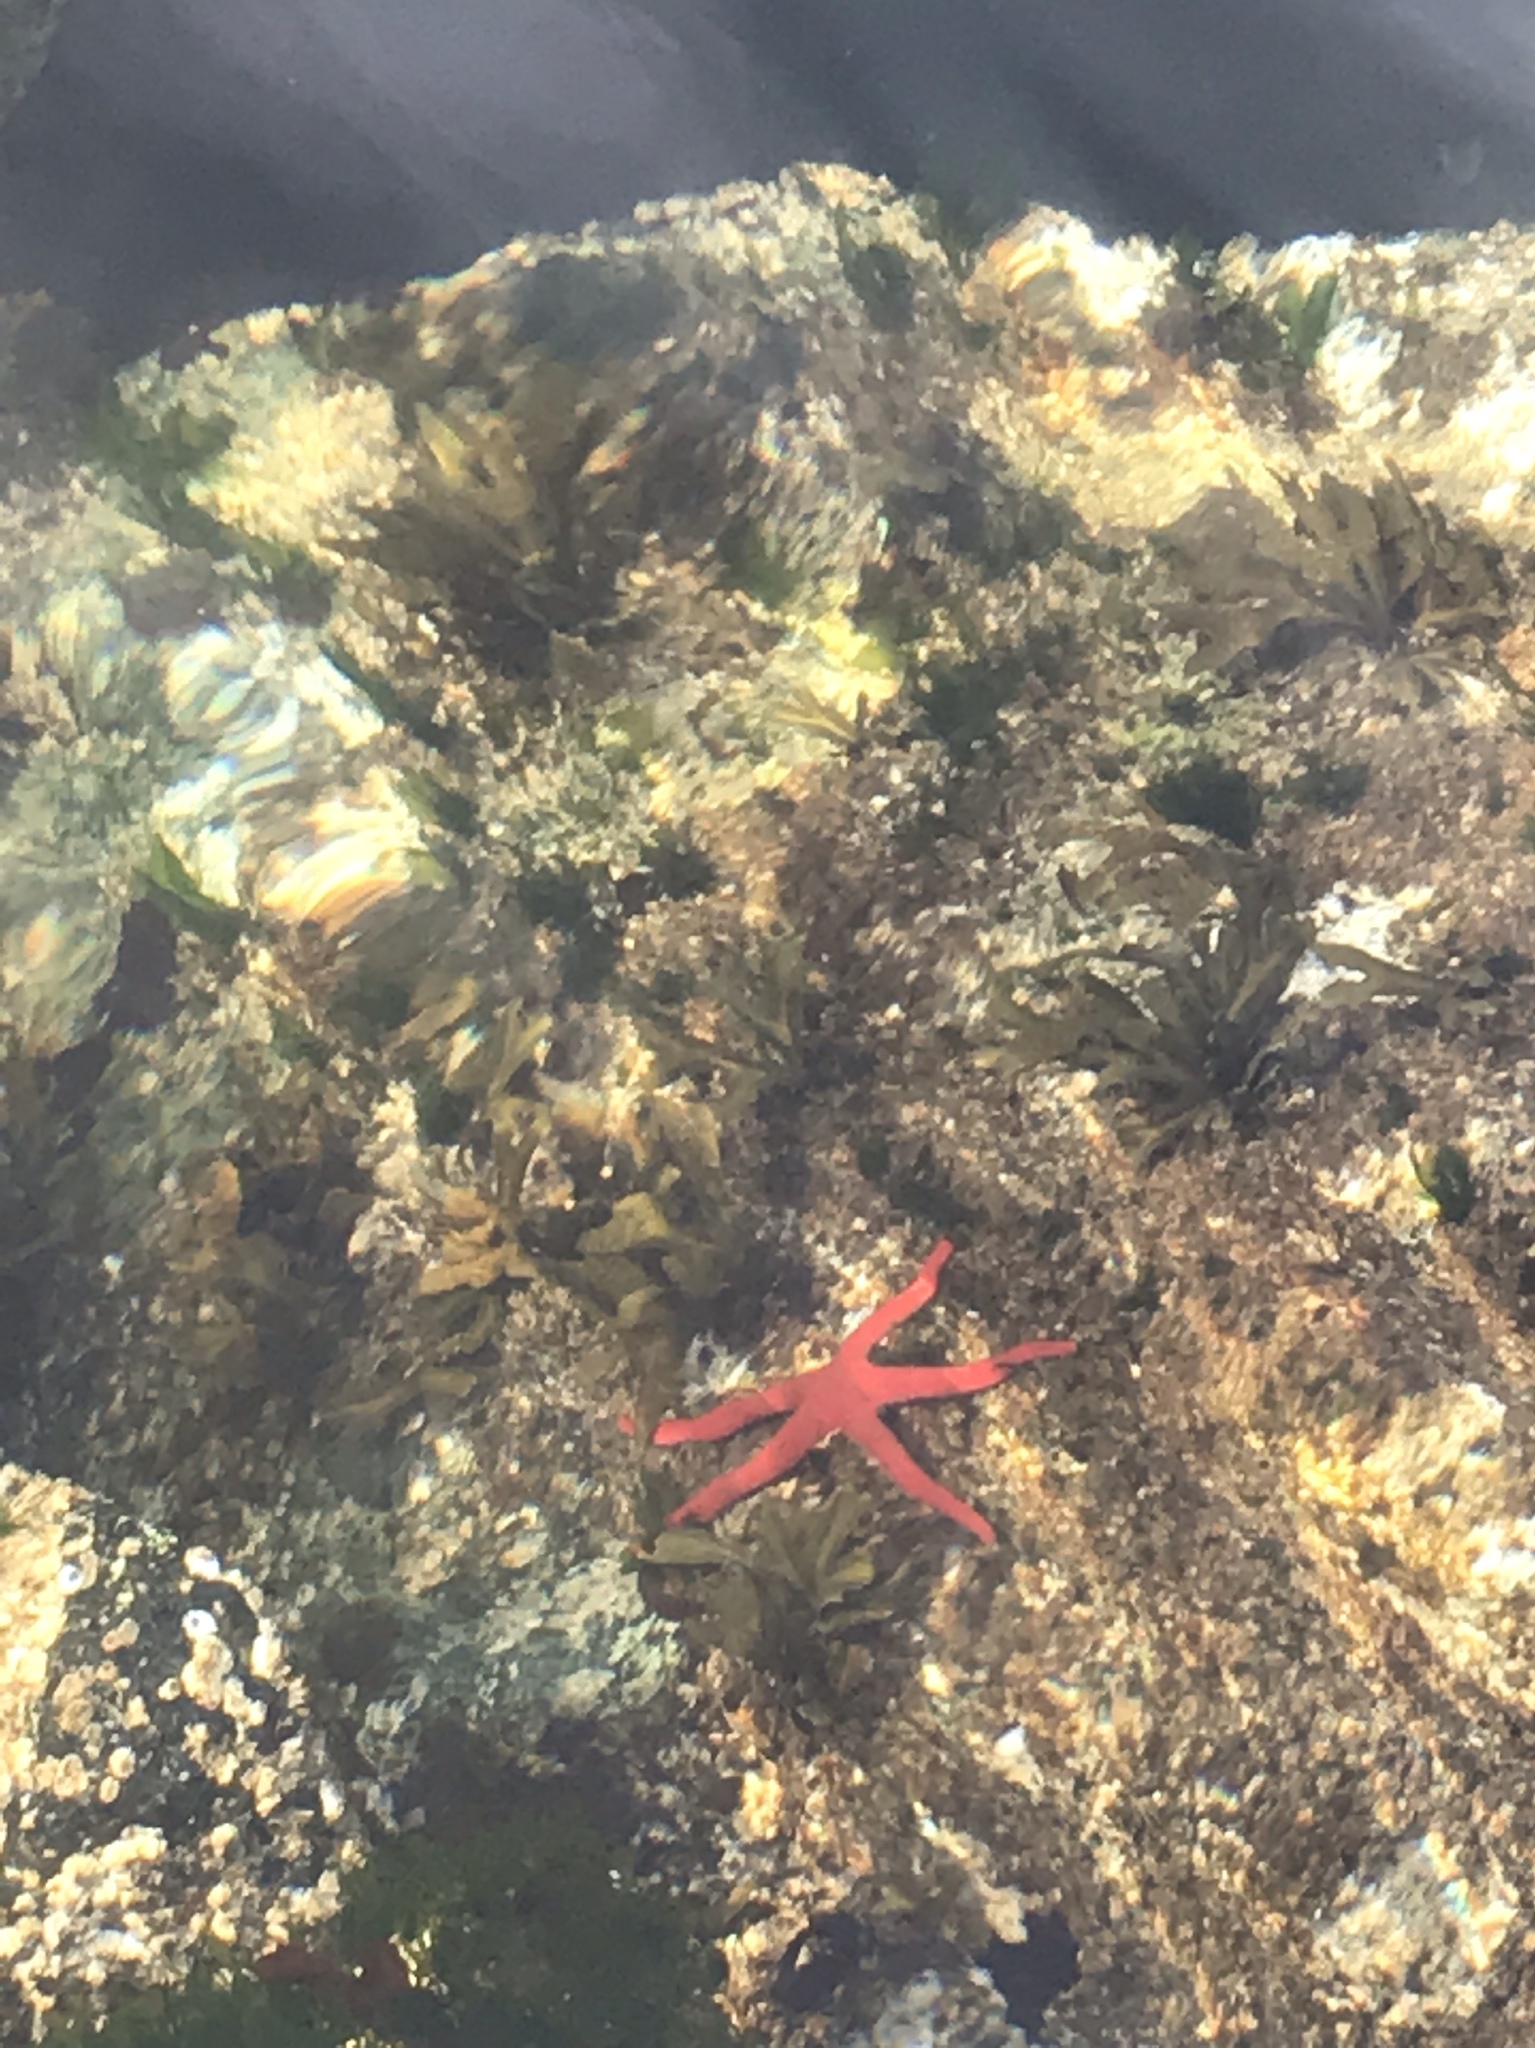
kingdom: Animalia
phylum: Echinodermata
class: Asteroidea
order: Spinulosida
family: Echinasteridae
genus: Henricia
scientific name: Henricia leviuscula
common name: Pacific blood star
